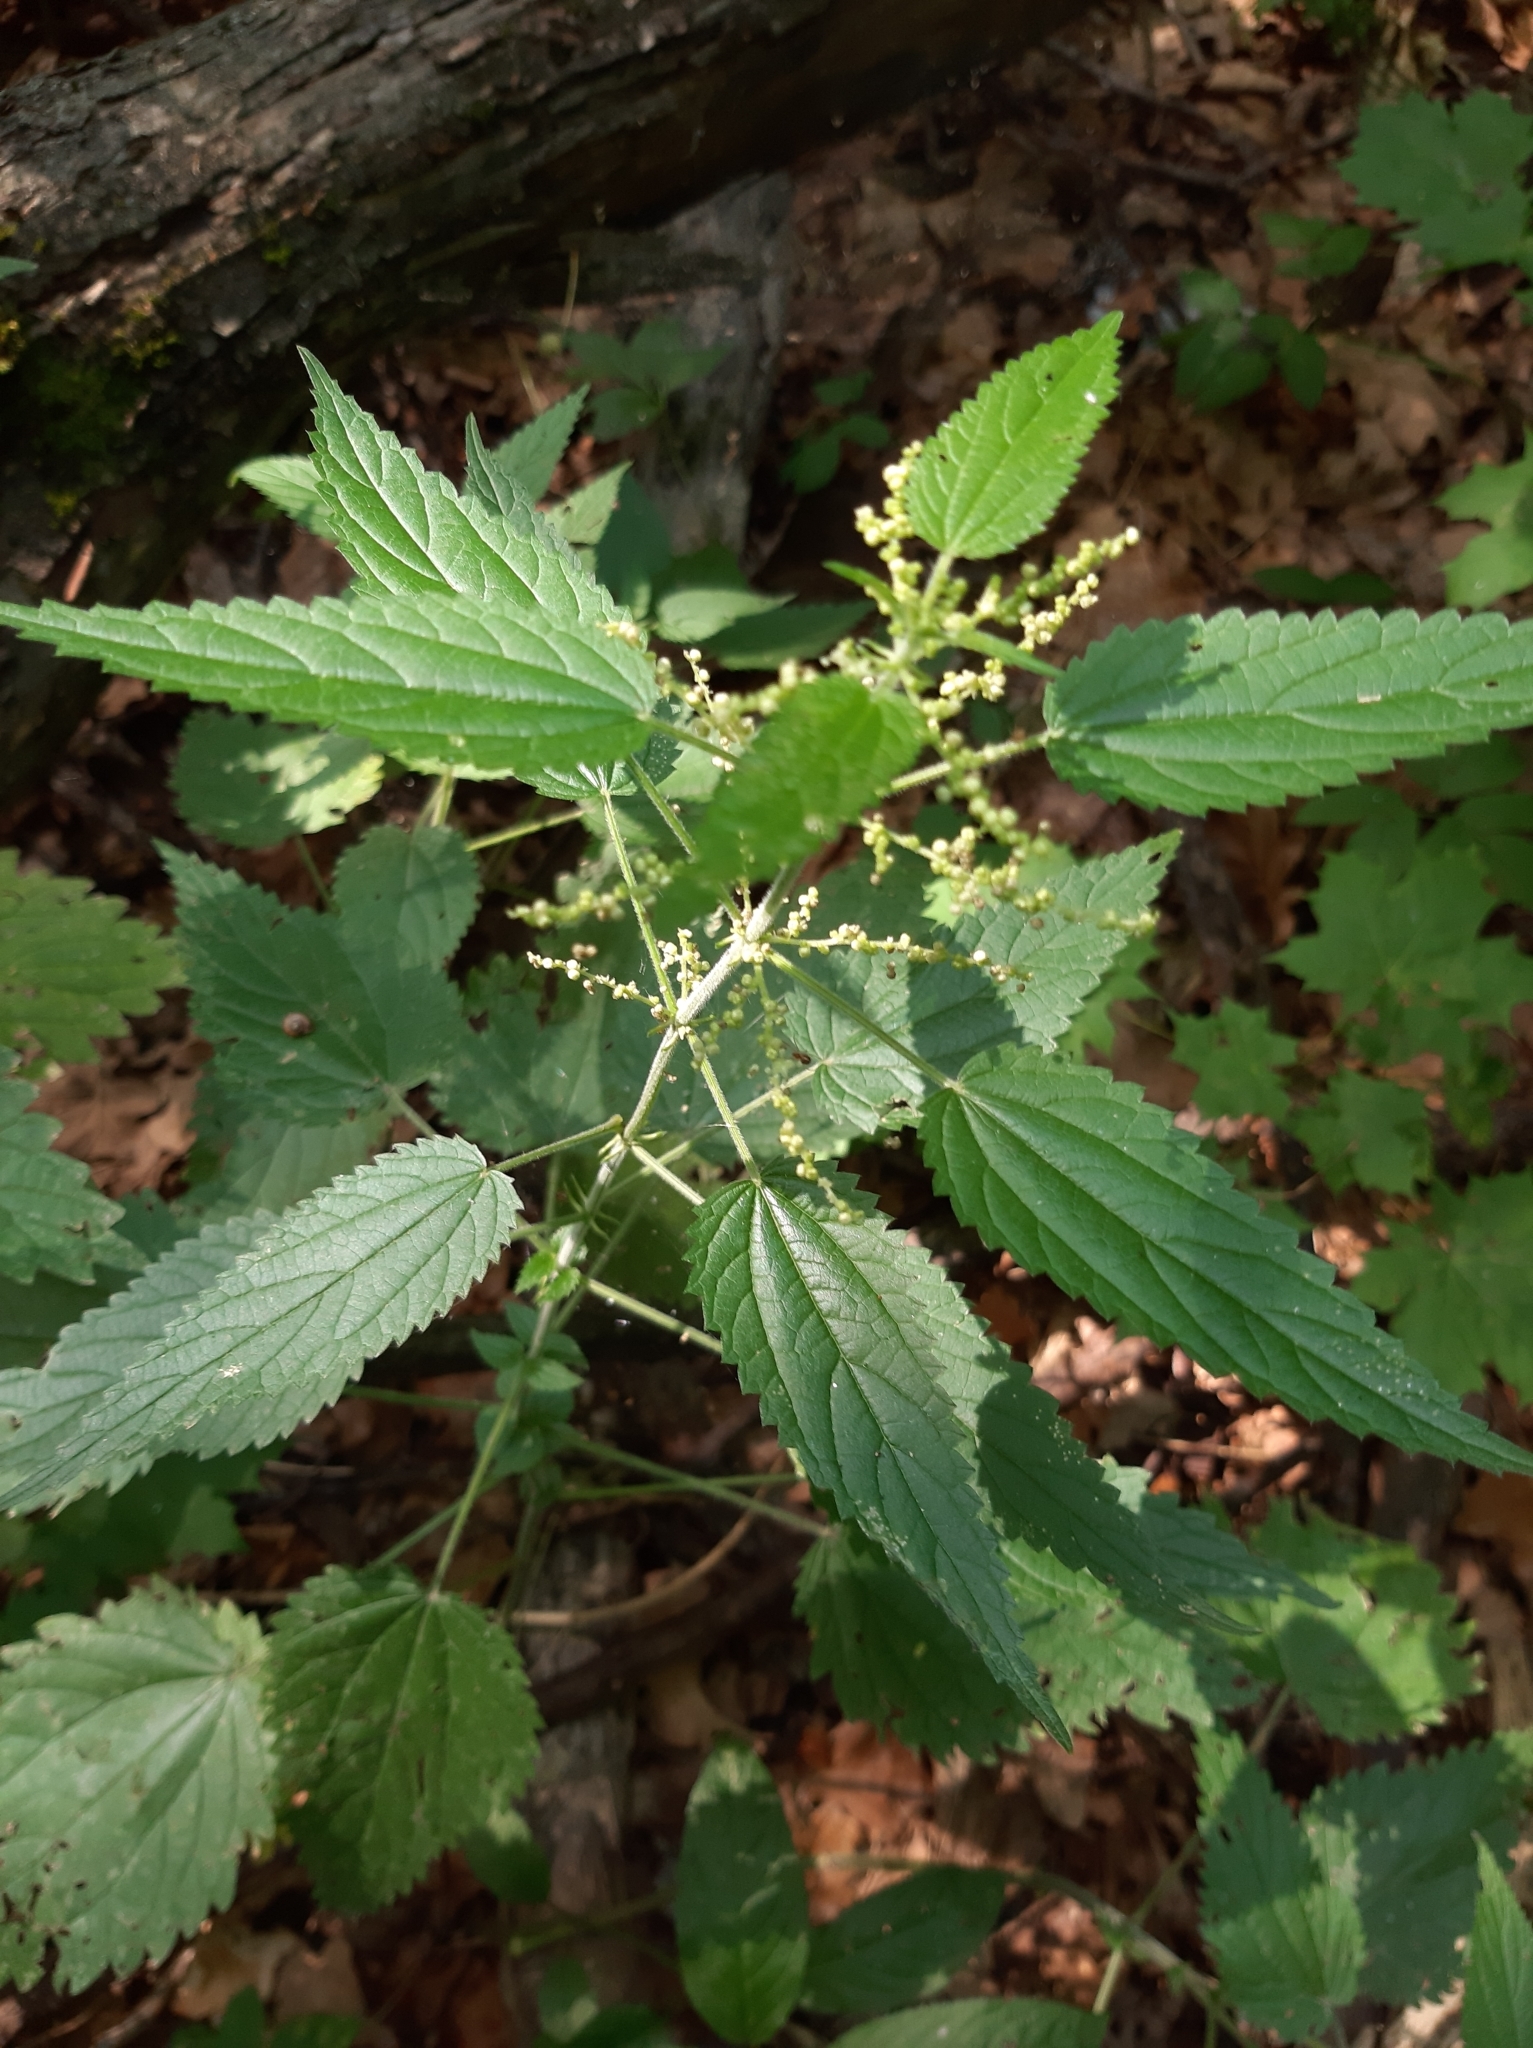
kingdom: Plantae
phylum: Tracheophyta
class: Magnoliopsida
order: Rosales
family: Urticaceae
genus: Urtica
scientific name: Urtica dioica
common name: Common nettle
